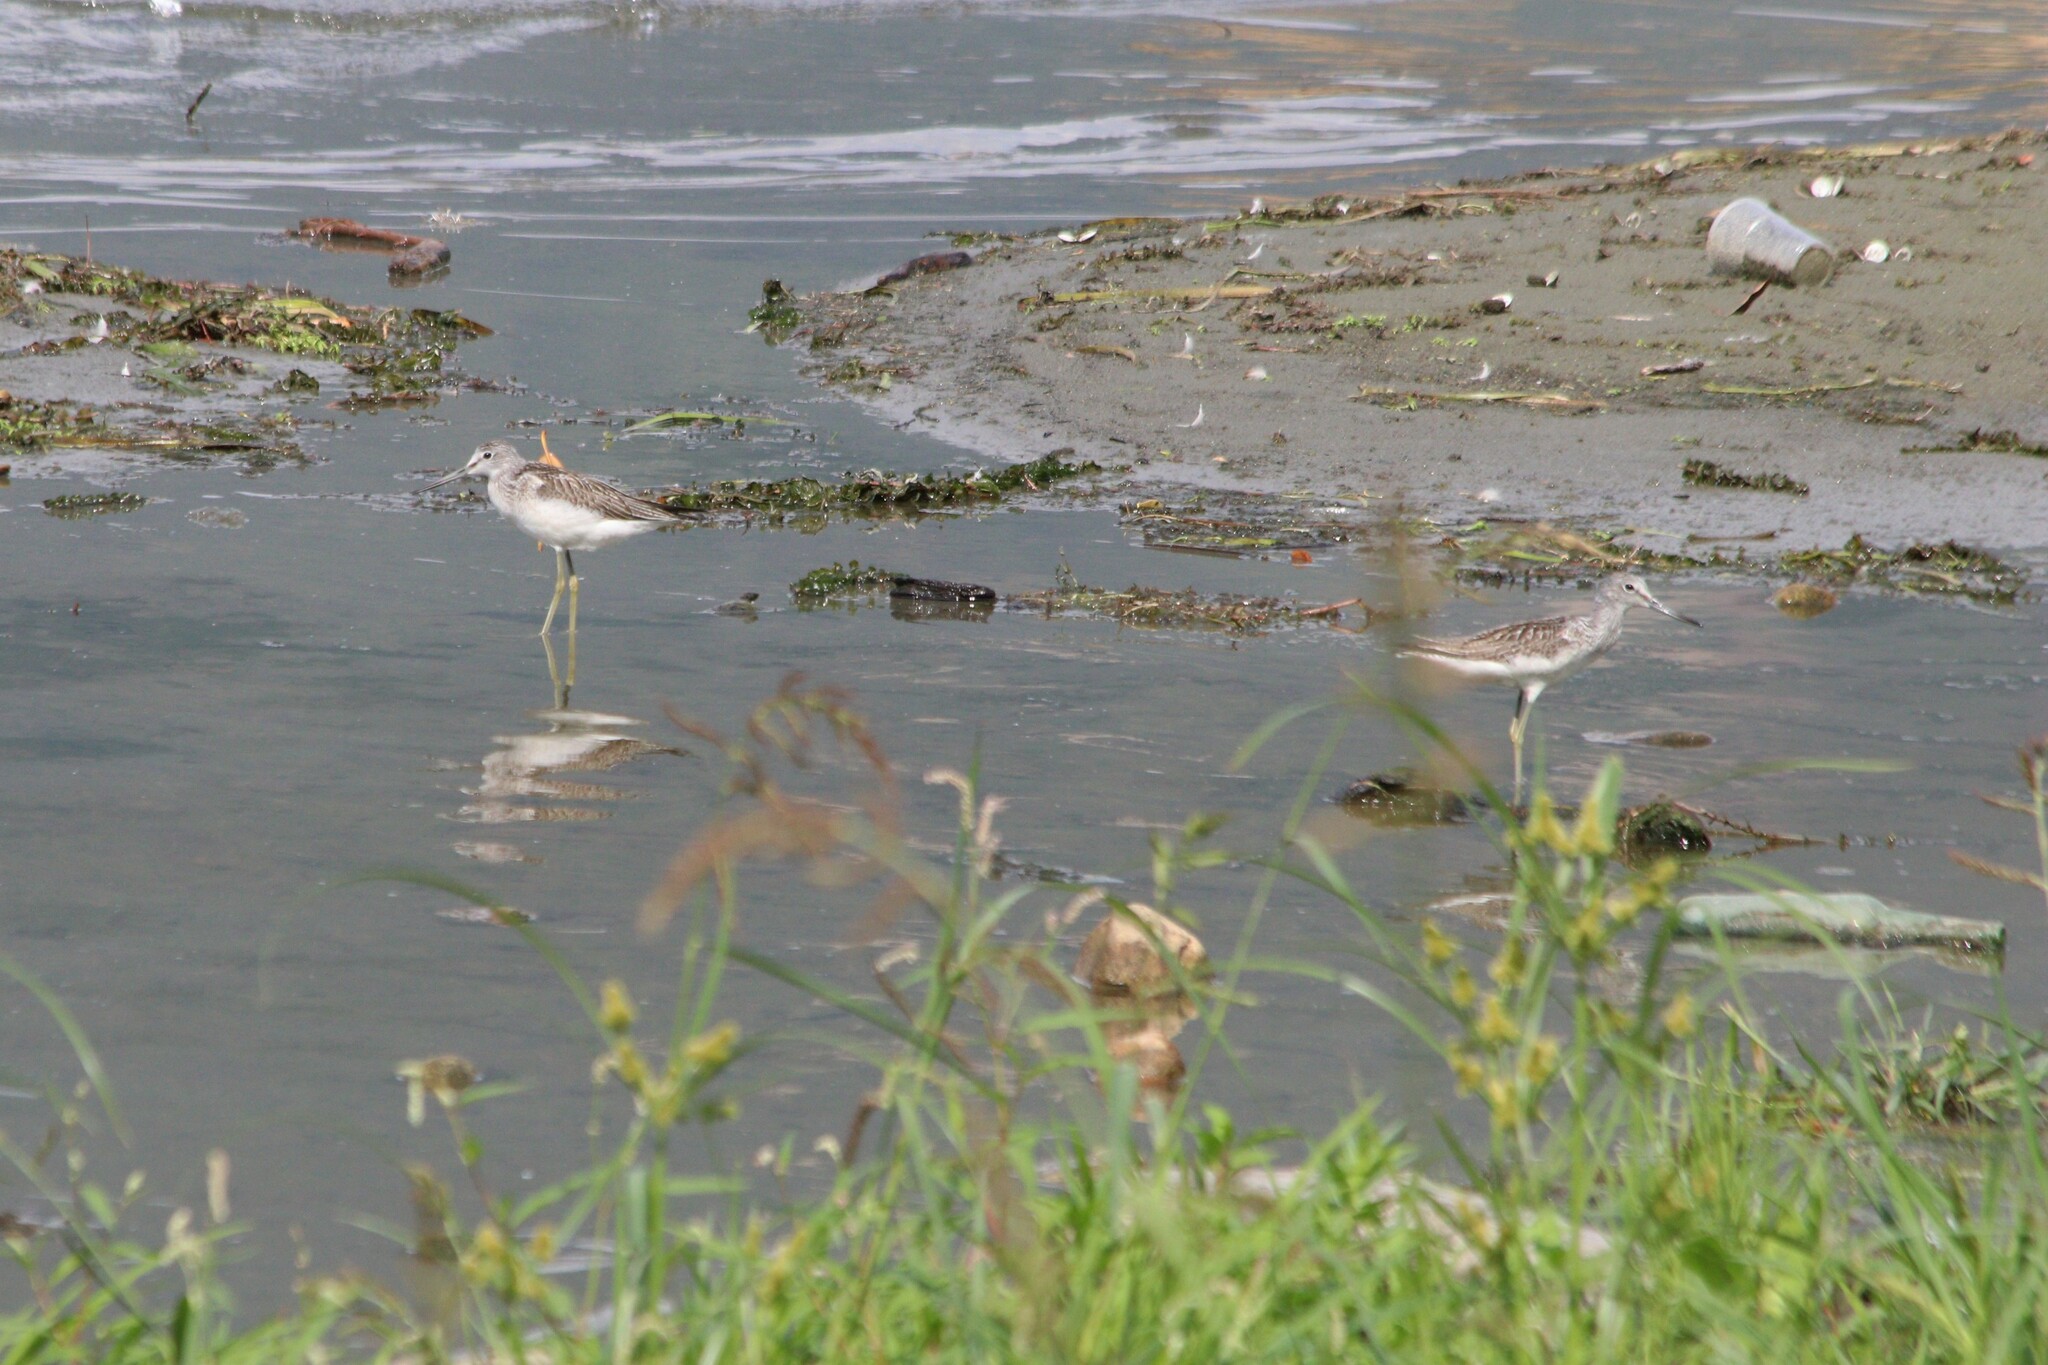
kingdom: Animalia
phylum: Chordata
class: Aves
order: Charadriiformes
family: Scolopacidae
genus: Tringa
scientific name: Tringa nebularia
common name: Common greenshank
